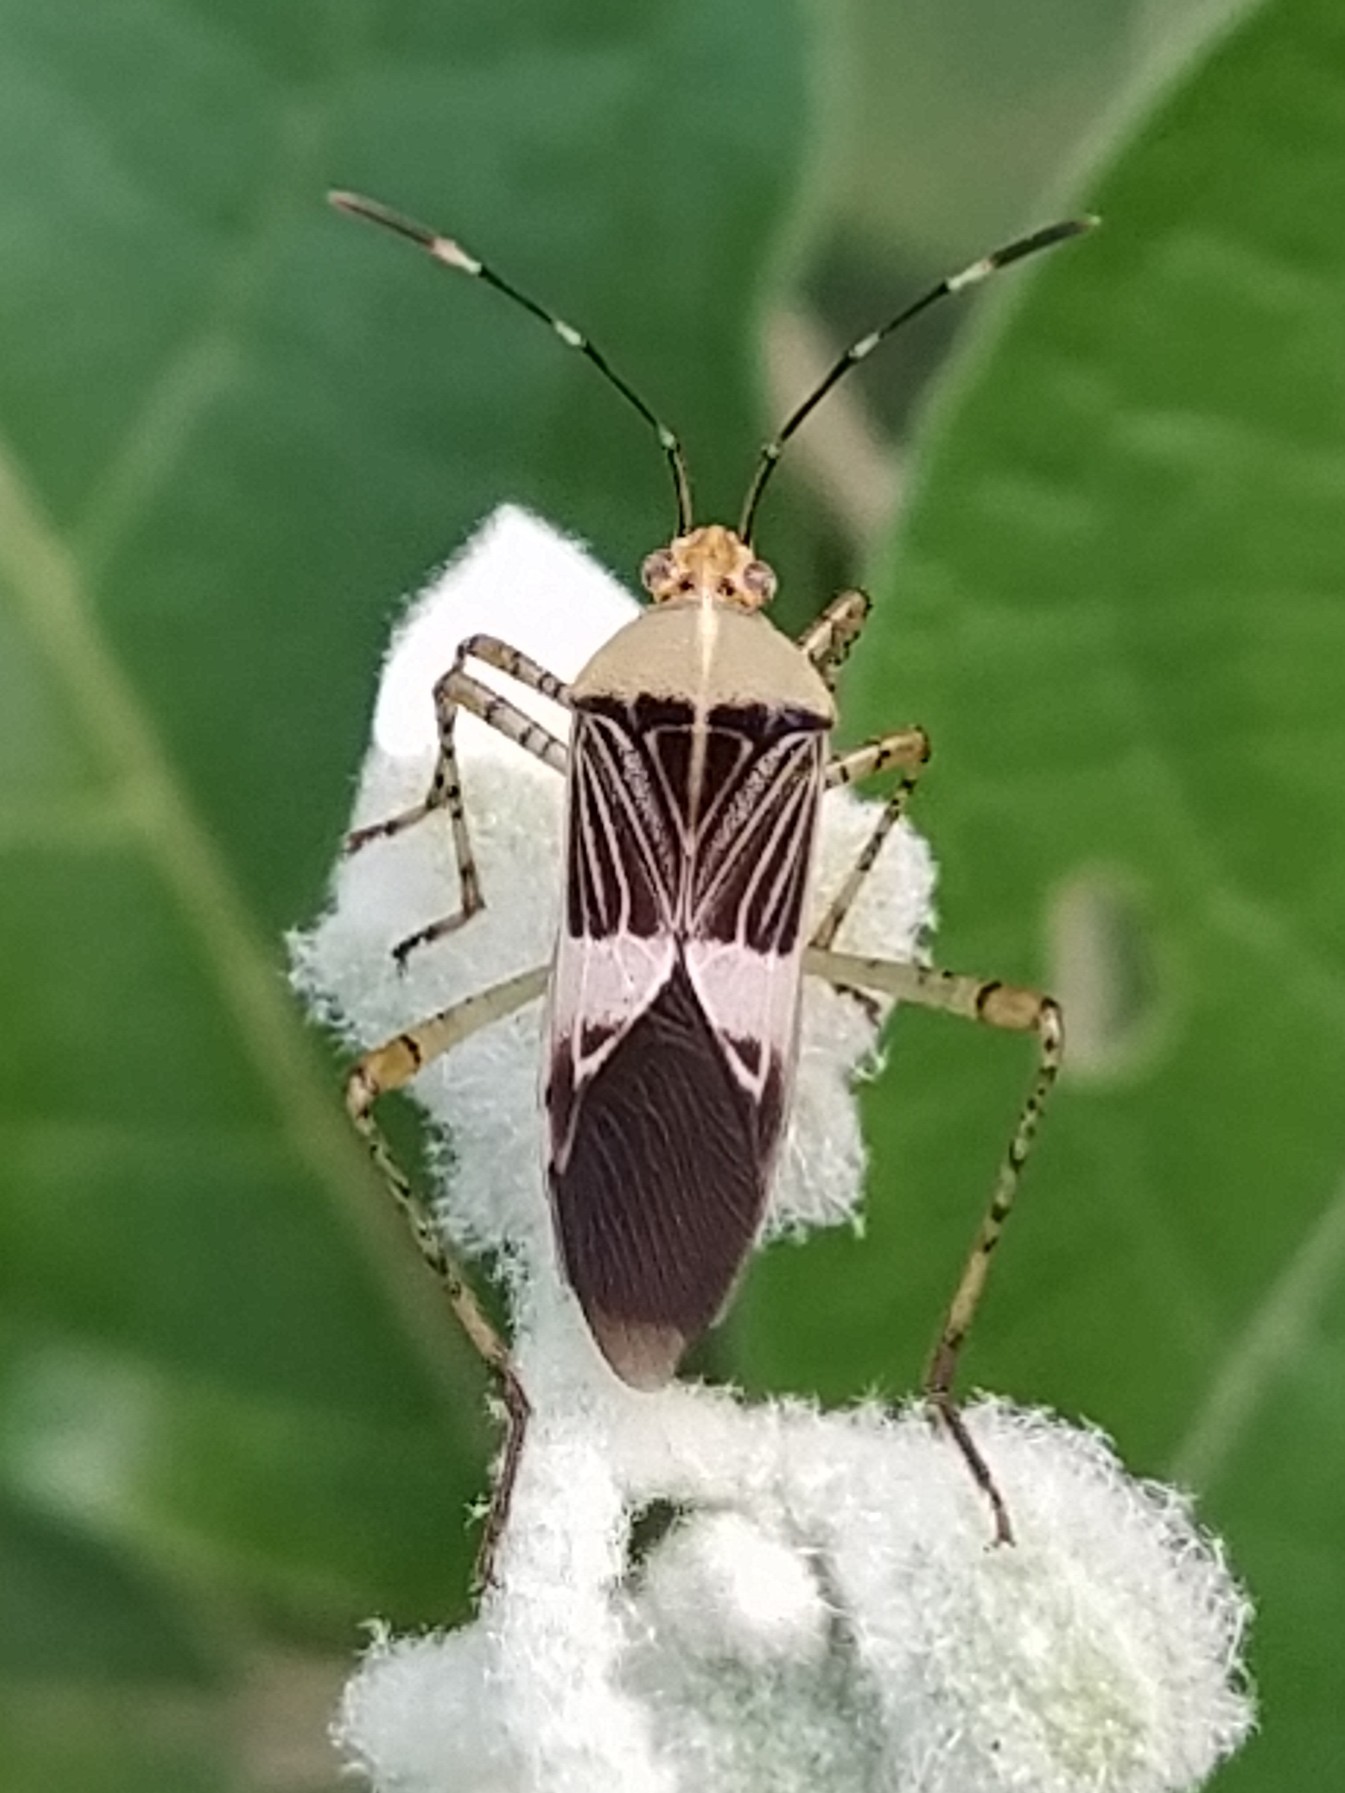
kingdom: Animalia
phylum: Arthropoda
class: Insecta
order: Hemiptera
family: Coreidae
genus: Hypselonotus
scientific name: Hypselonotus fulvus
